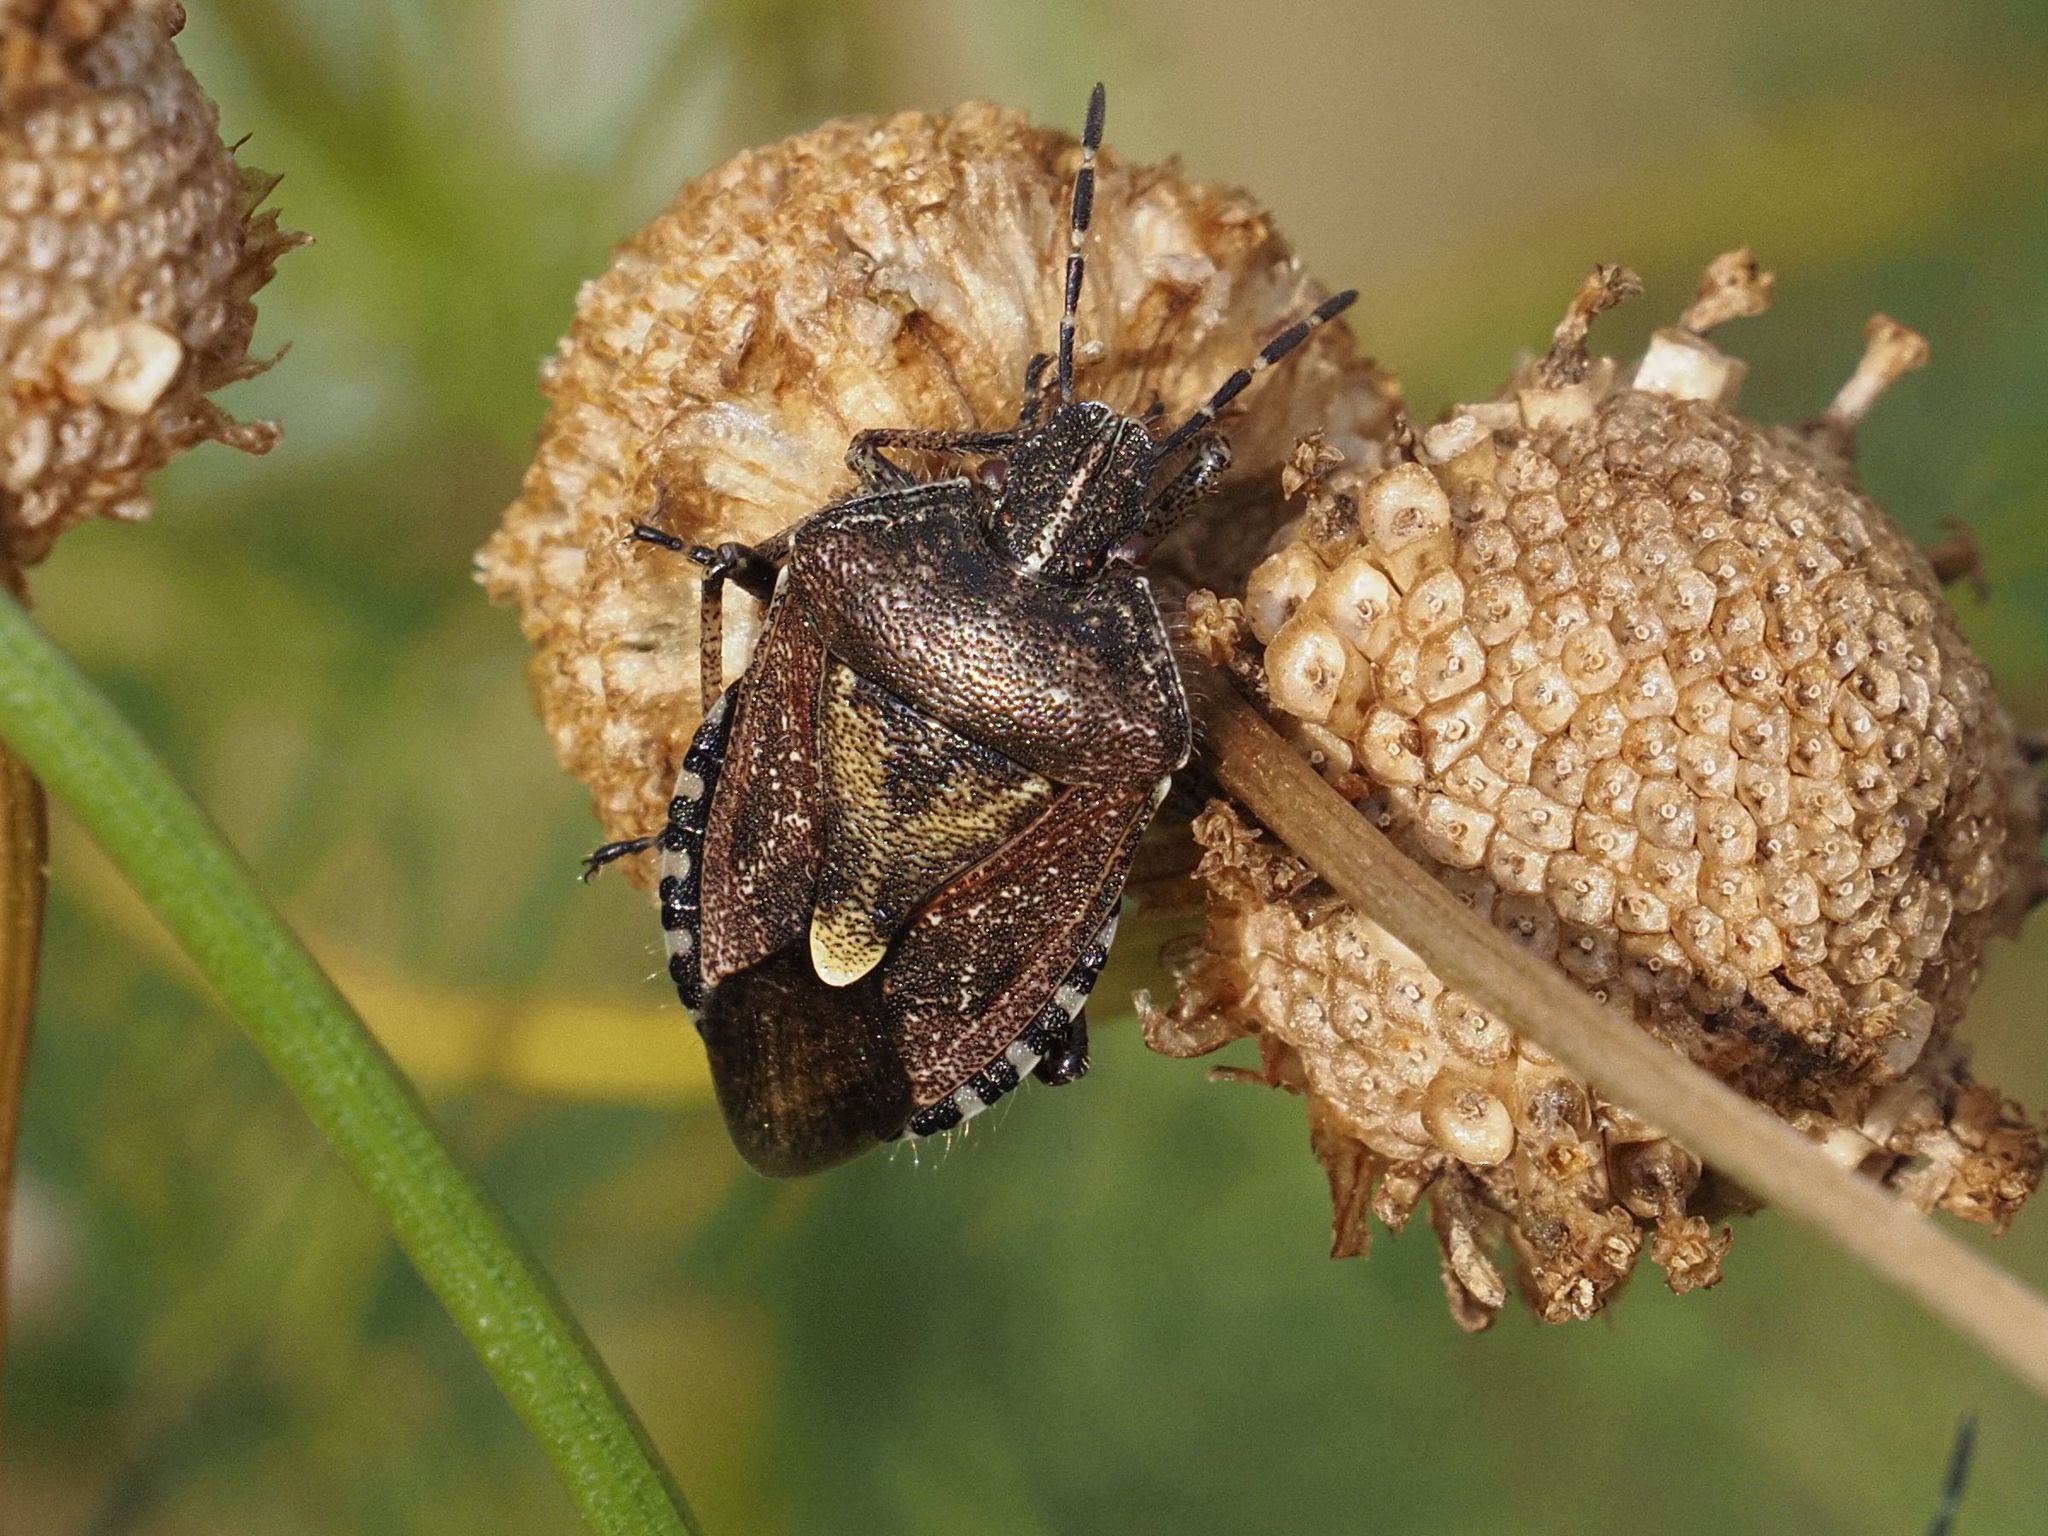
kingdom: Animalia
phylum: Arthropoda
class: Insecta
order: Hemiptera
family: Pentatomidae
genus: Dolycoris
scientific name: Dolycoris baccarum
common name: Sloe bug
